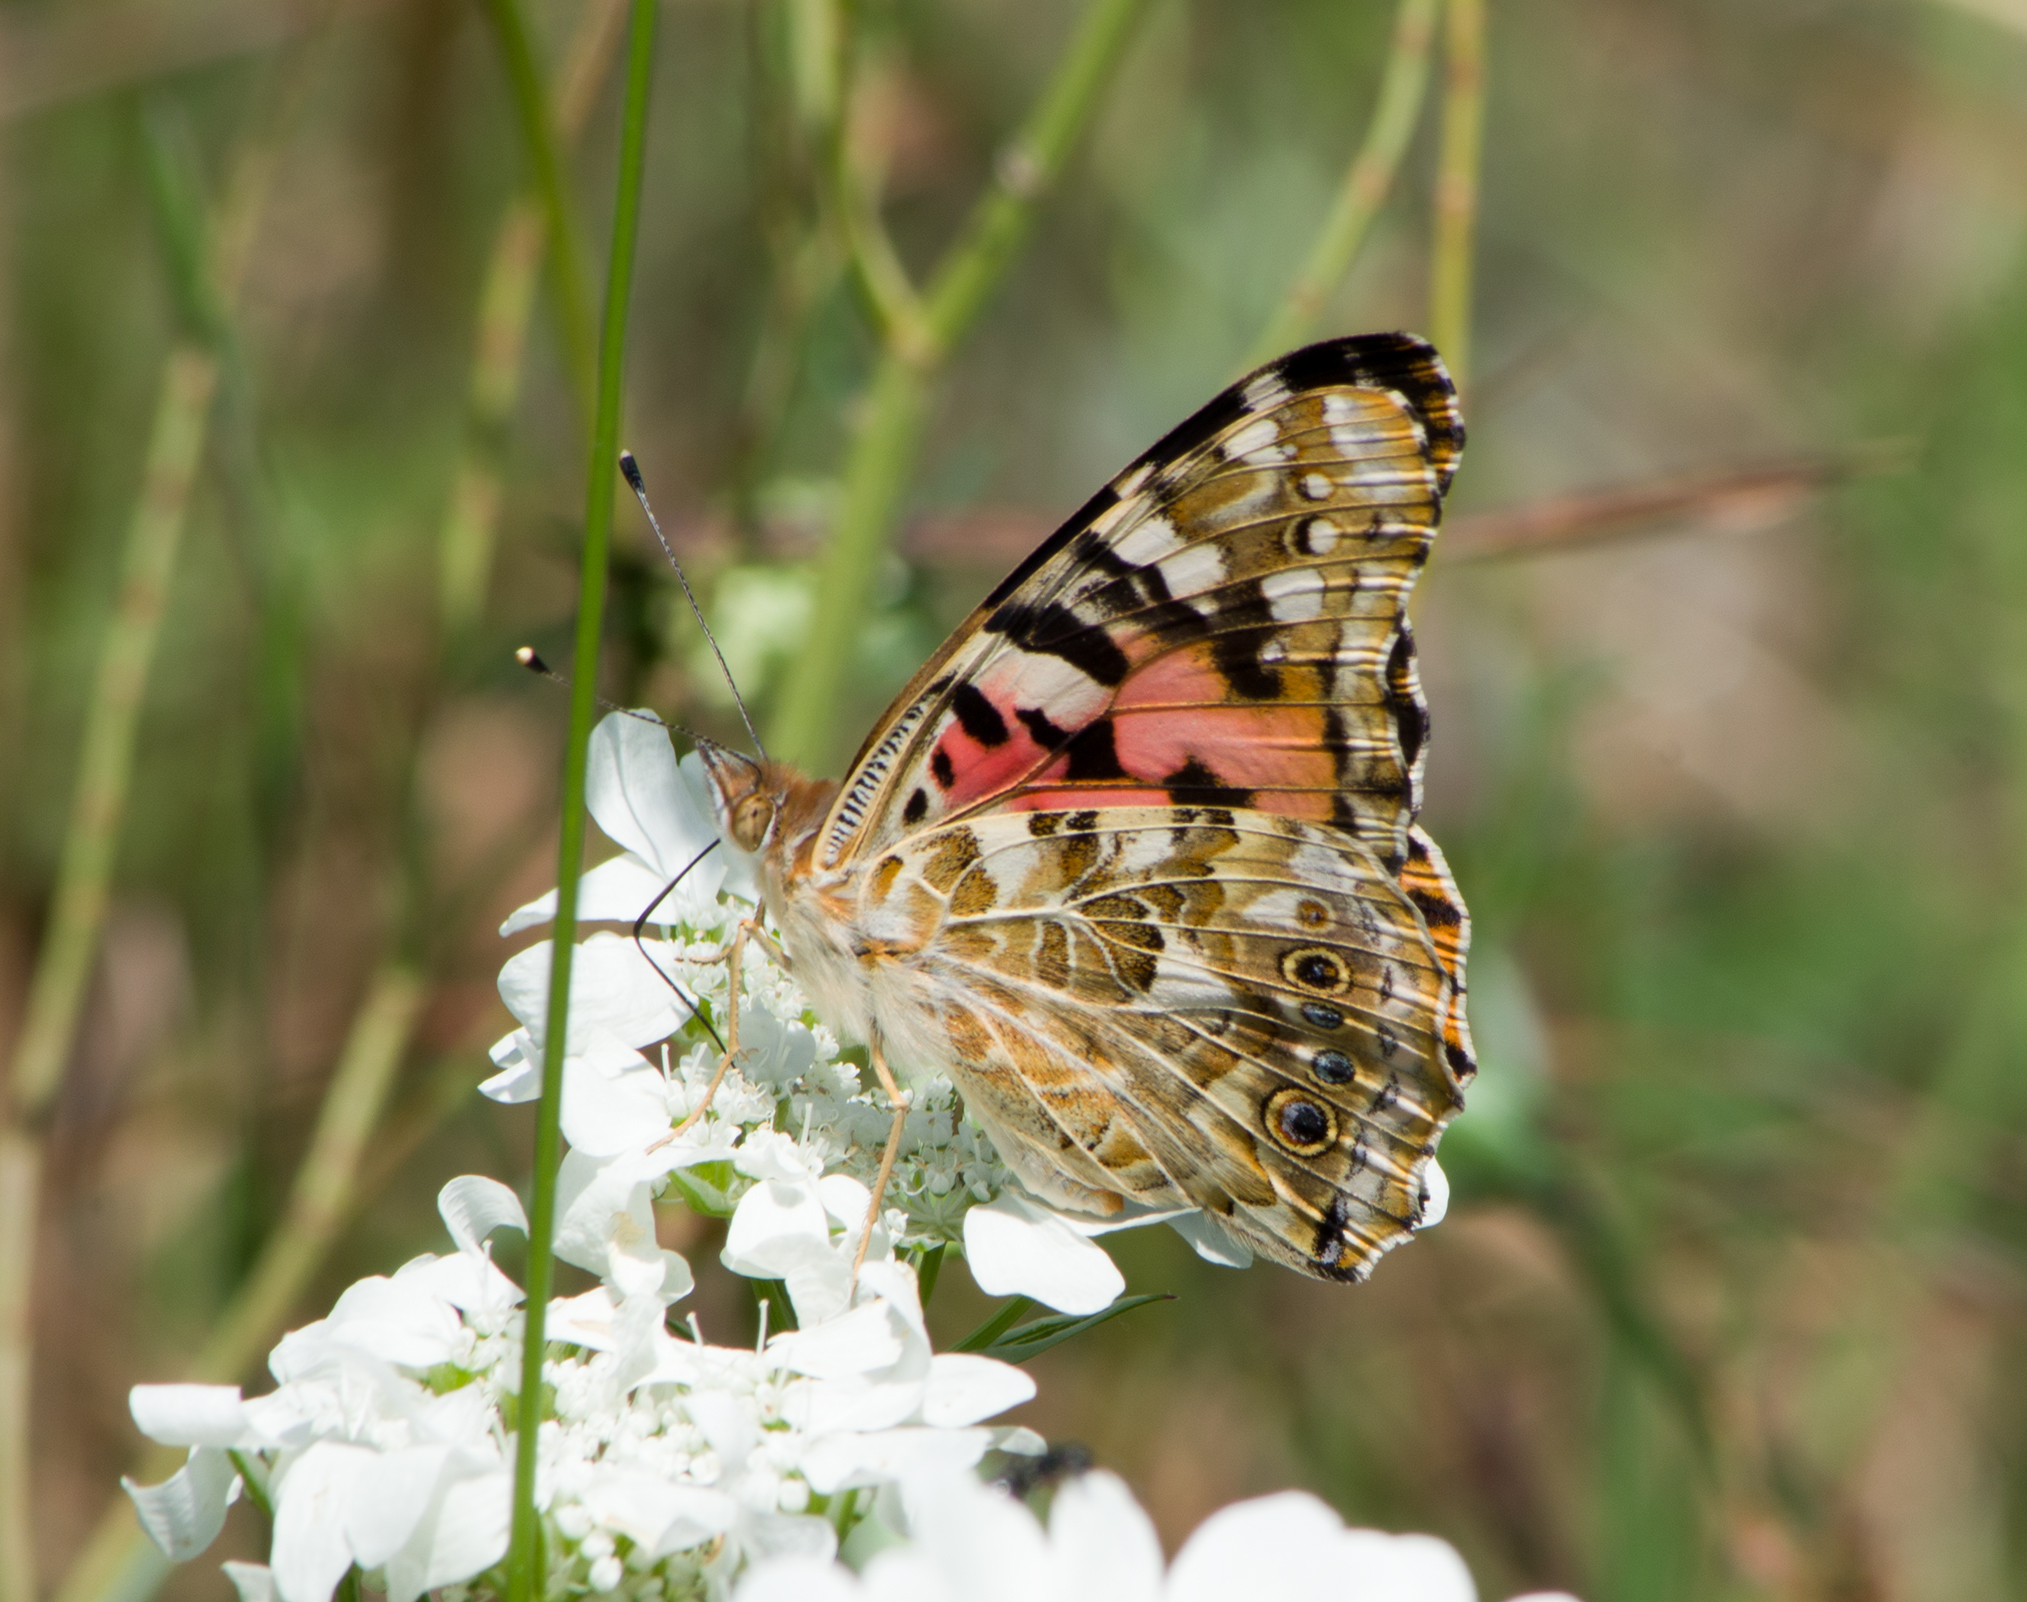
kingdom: Animalia
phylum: Arthropoda
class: Insecta
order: Lepidoptera
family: Nymphalidae
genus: Vanessa
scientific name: Vanessa cardui
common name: Painted lady
